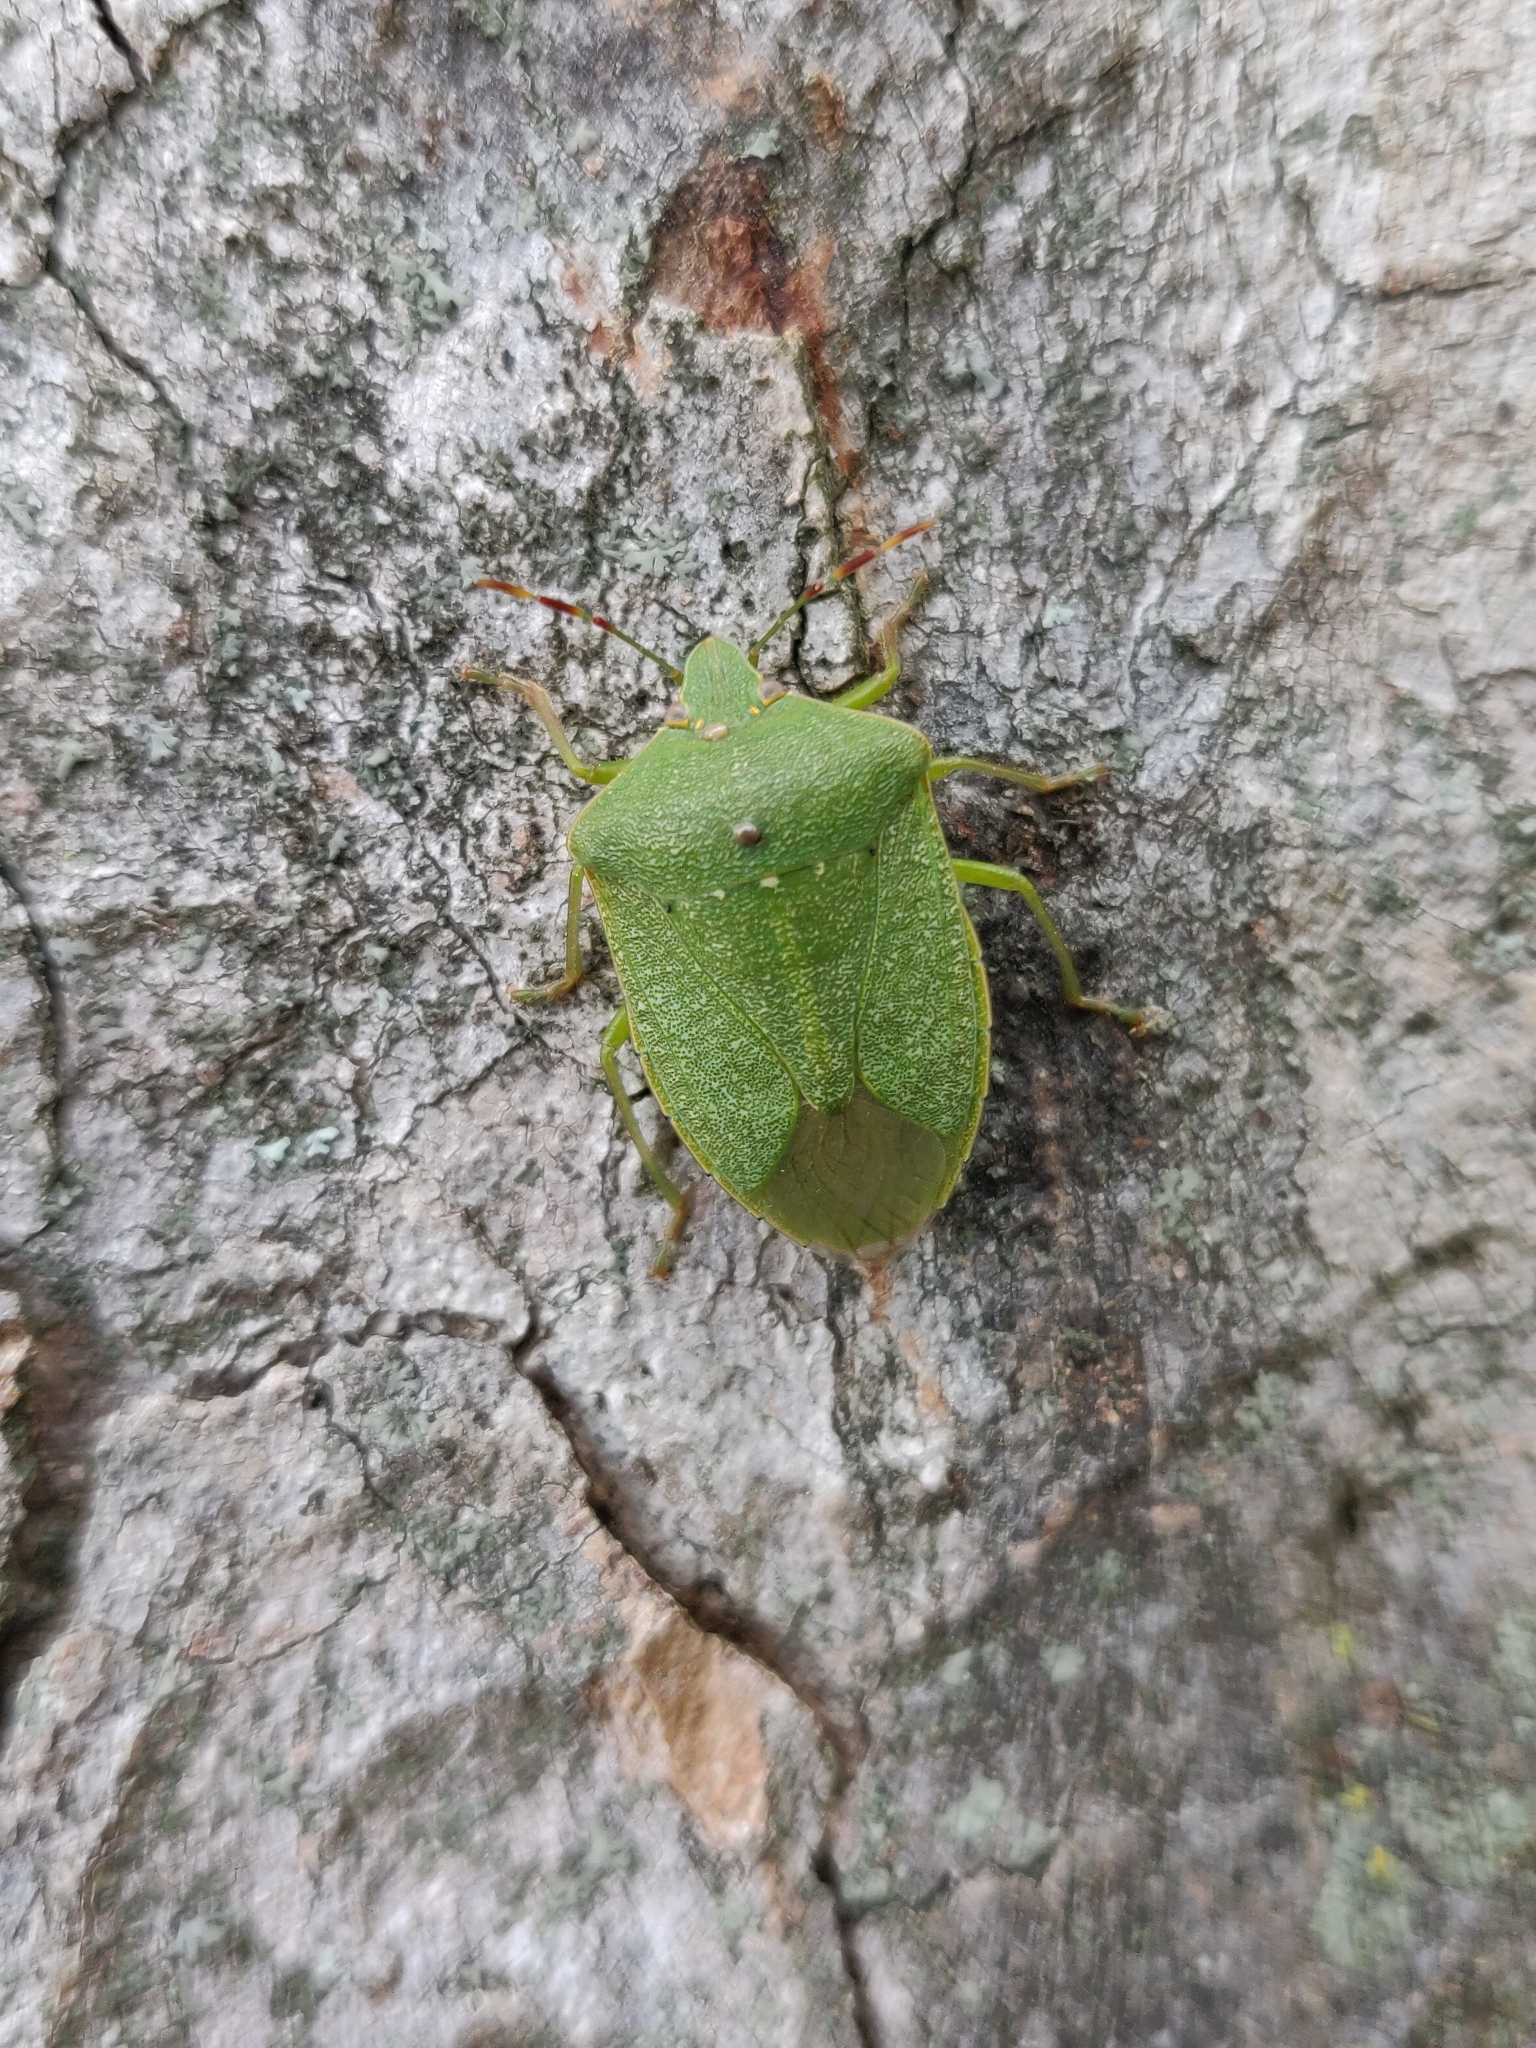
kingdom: Animalia
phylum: Arthropoda
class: Insecta
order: Hemiptera
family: Pentatomidae
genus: Nezara
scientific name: Nezara viridula
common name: Southern green stink bug
